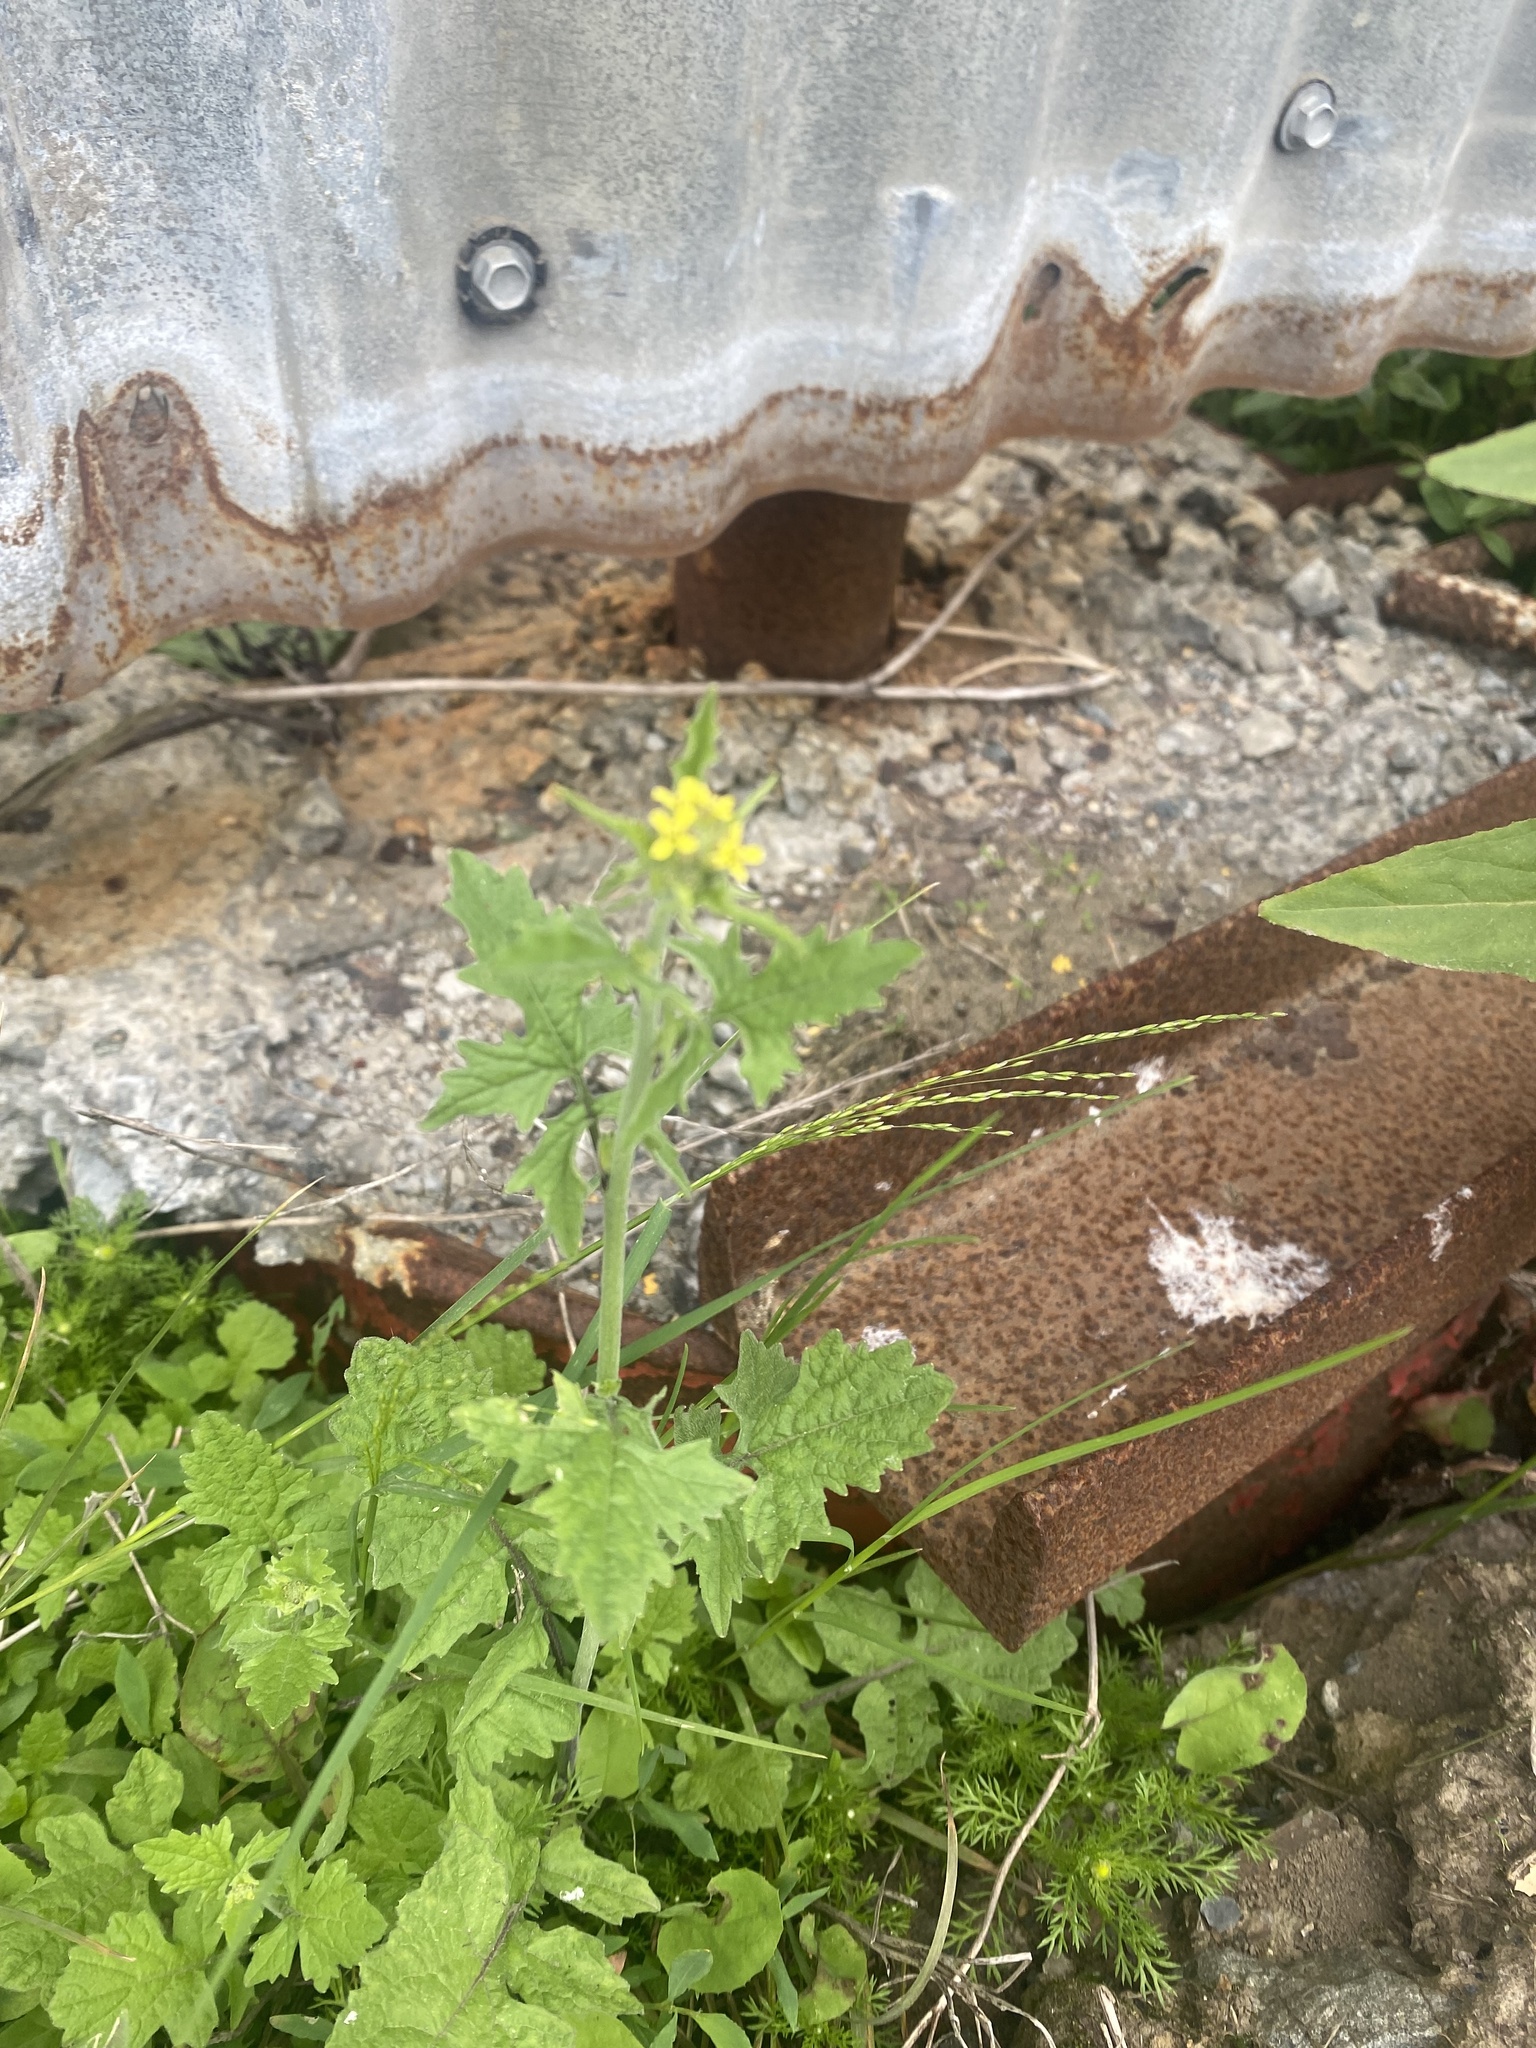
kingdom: Plantae
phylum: Tracheophyta
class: Magnoliopsida
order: Brassicales
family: Brassicaceae
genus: Sisymbrium
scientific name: Sisymbrium officinale
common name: Hedge mustard
